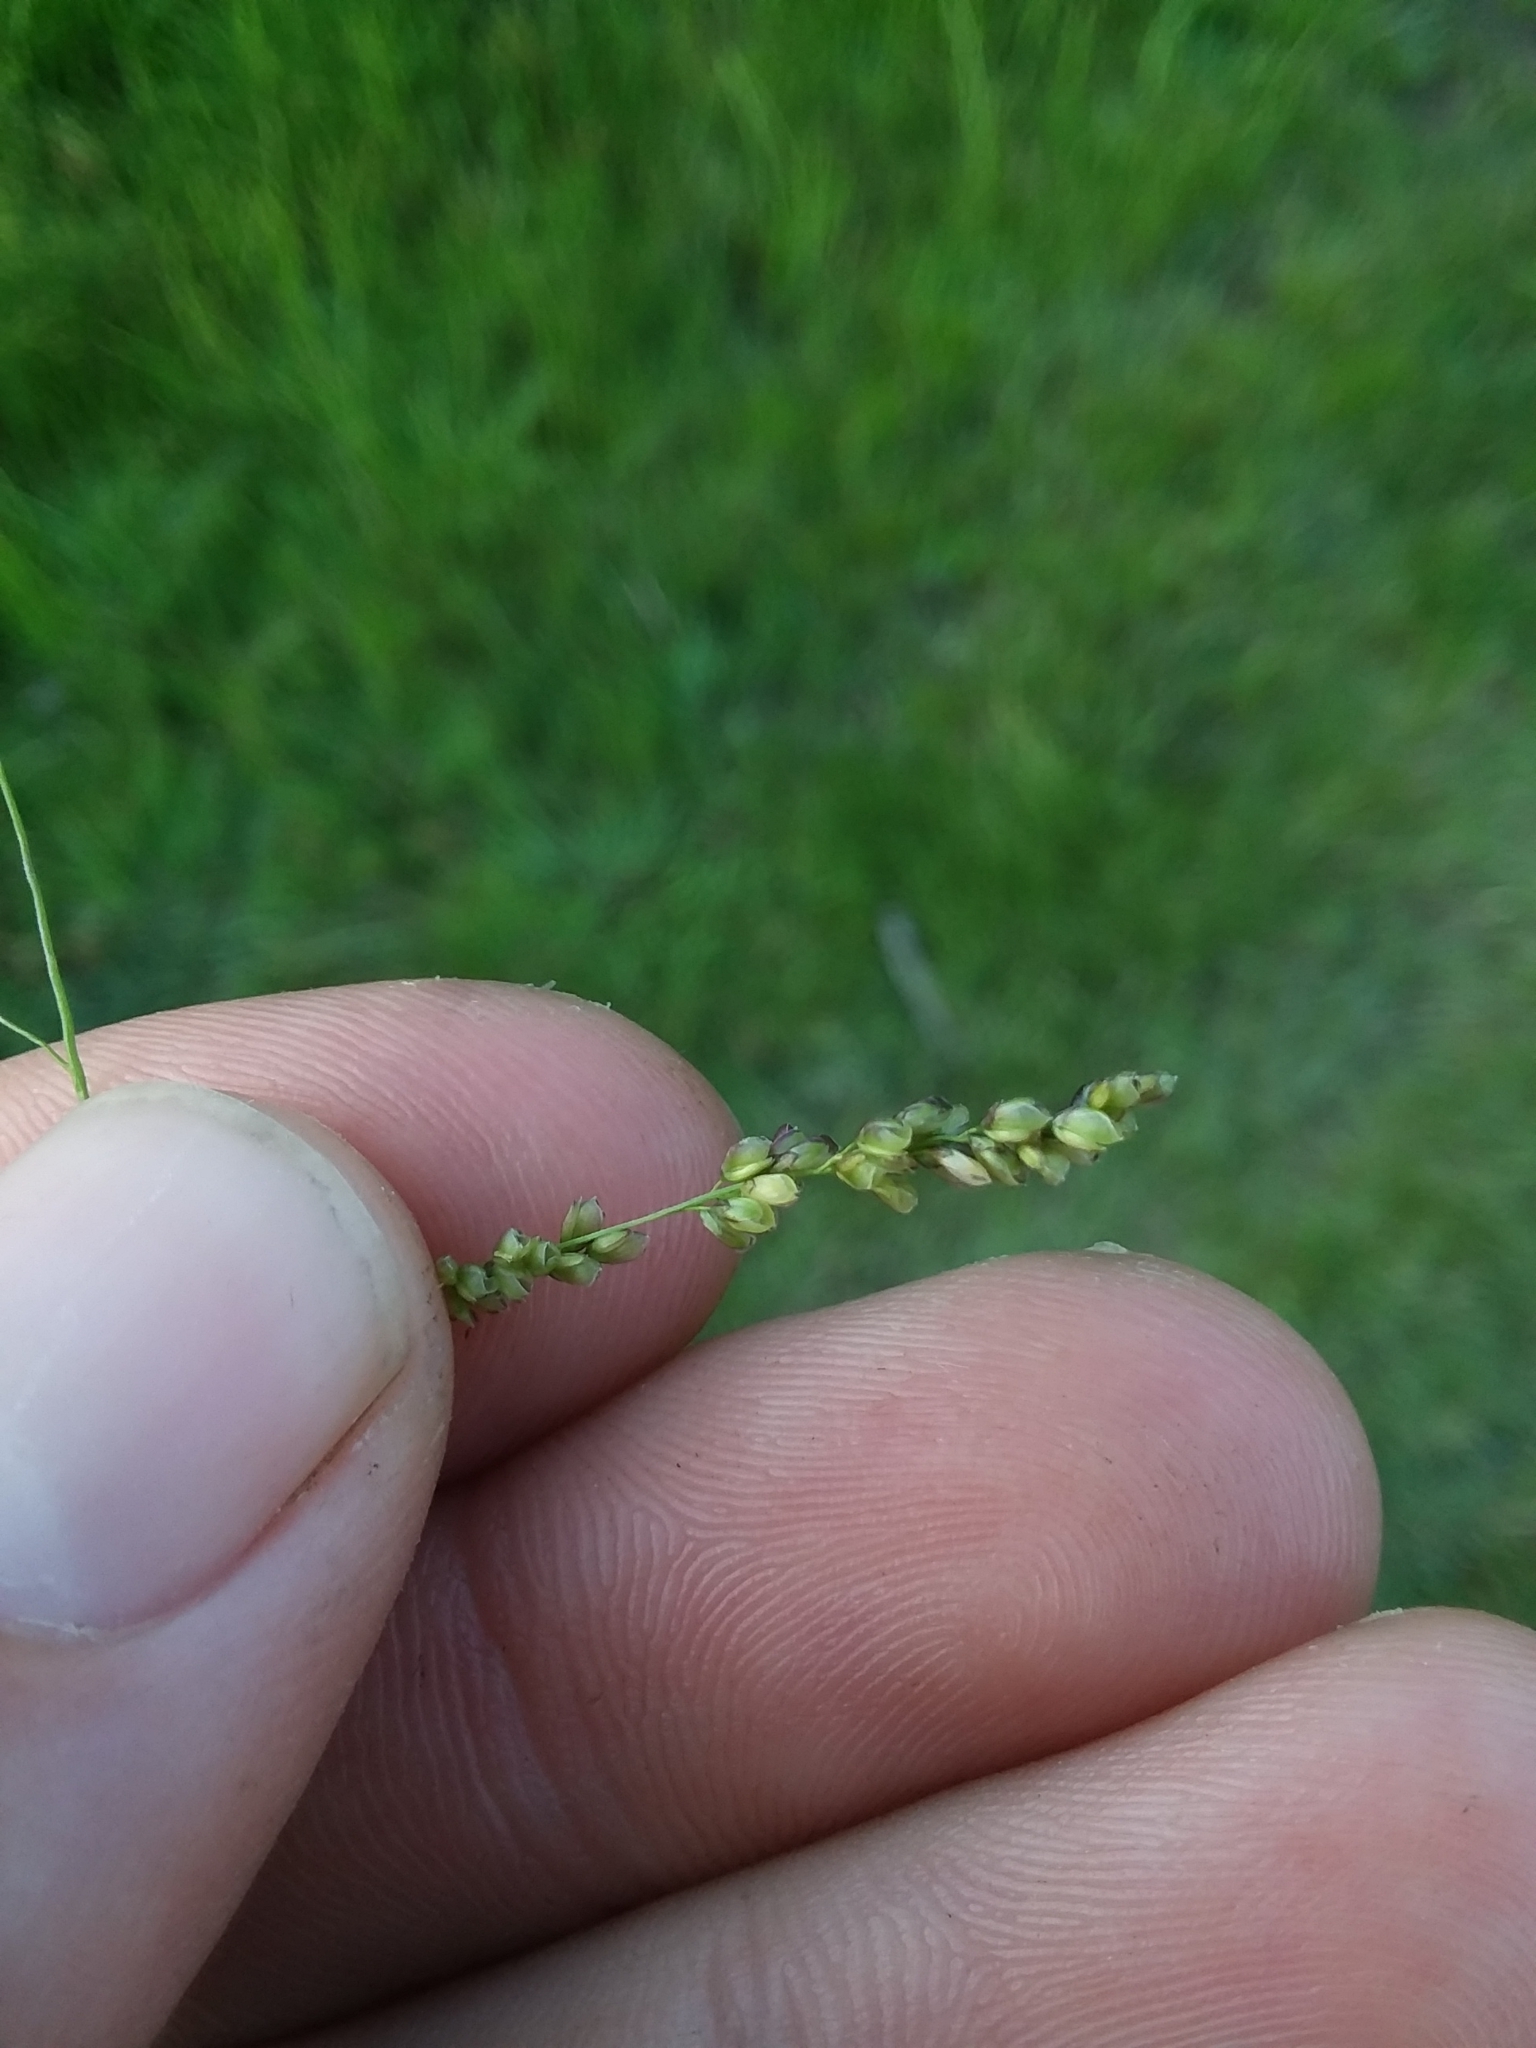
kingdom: Plantae
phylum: Tracheophyta
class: Liliopsida
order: Poales
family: Poaceae
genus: Steinchisma
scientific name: Steinchisma hians
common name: Gaping panic grass
